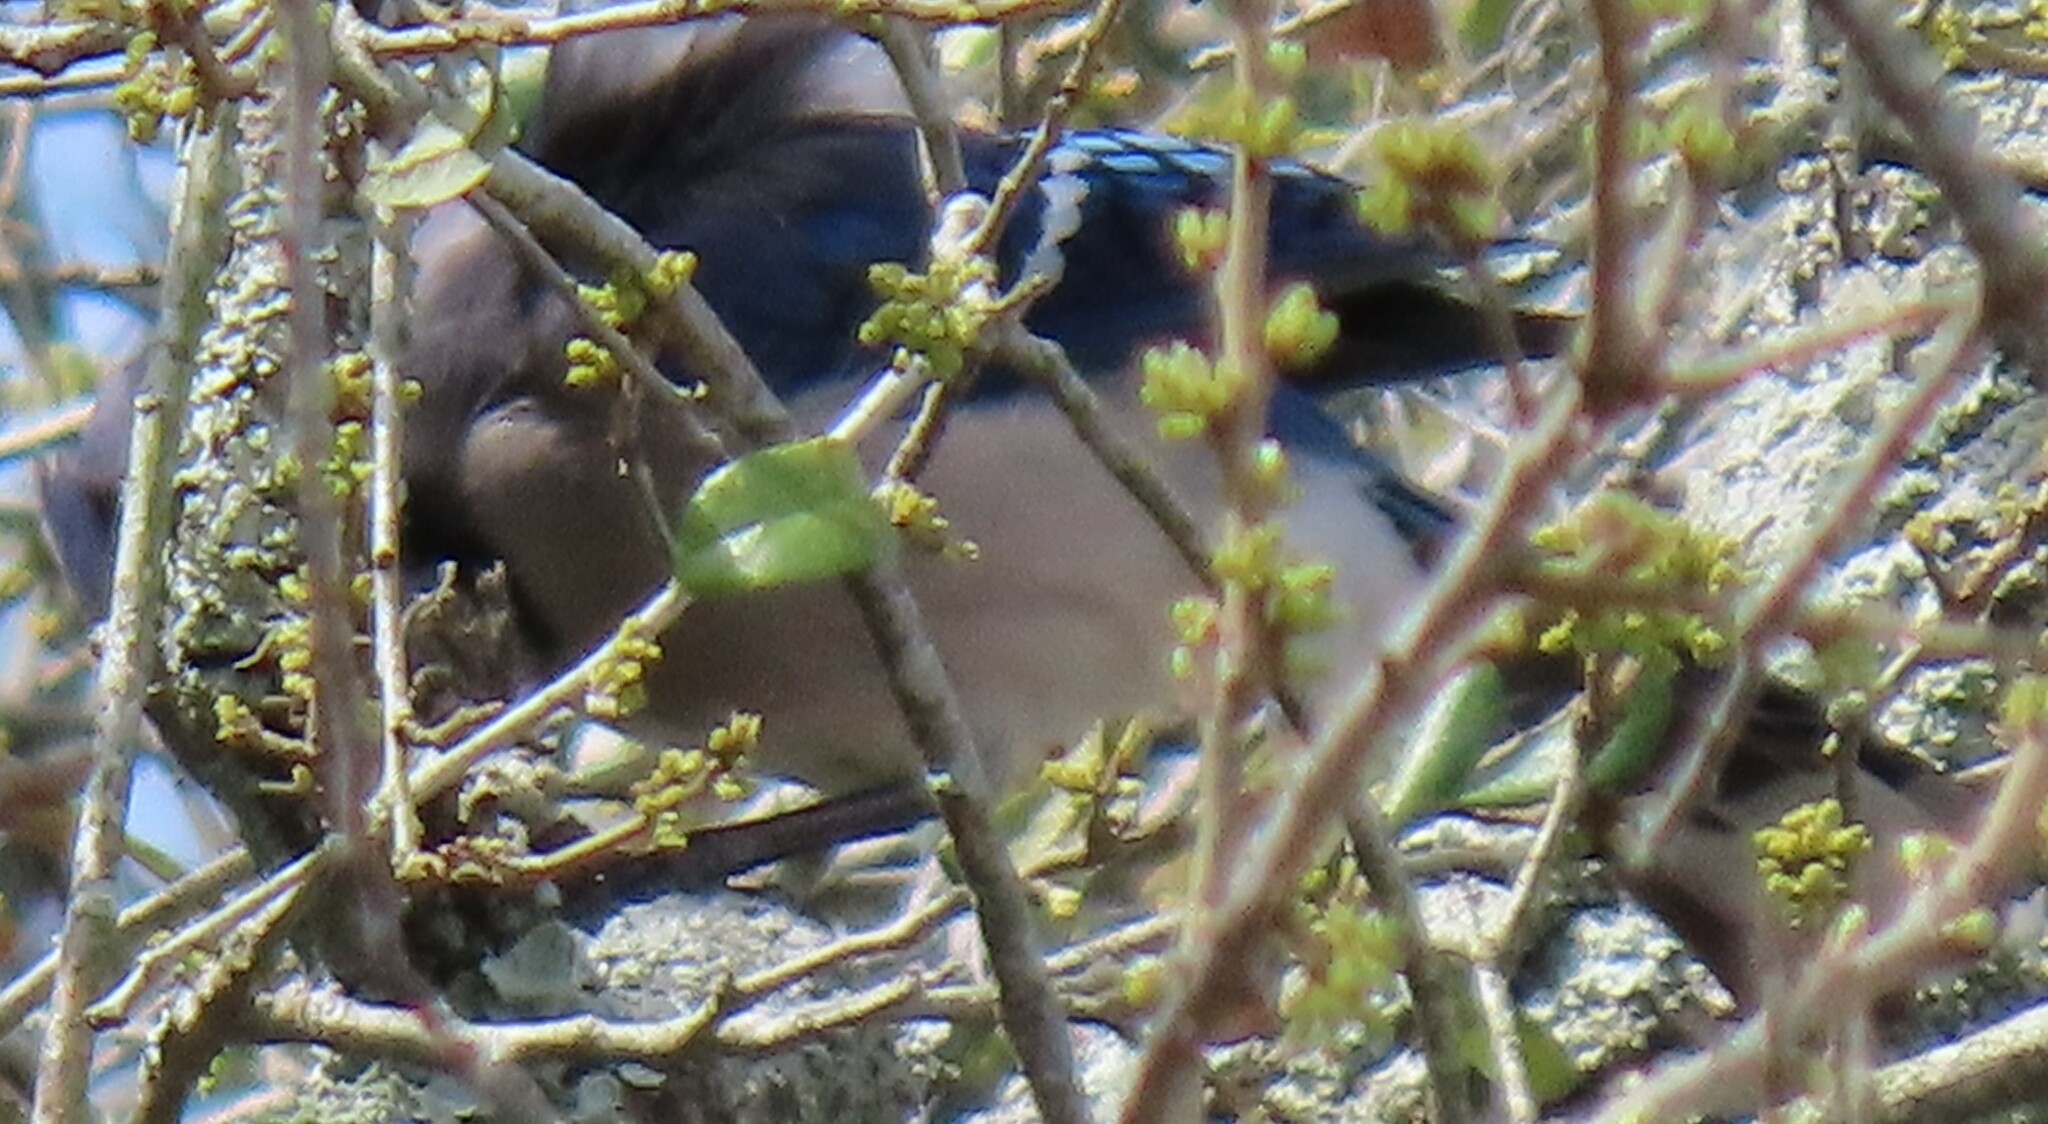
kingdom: Animalia
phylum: Chordata
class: Aves
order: Passeriformes
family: Corvidae
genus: Cyanocitta
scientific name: Cyanocitta cristata
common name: Blue jay
